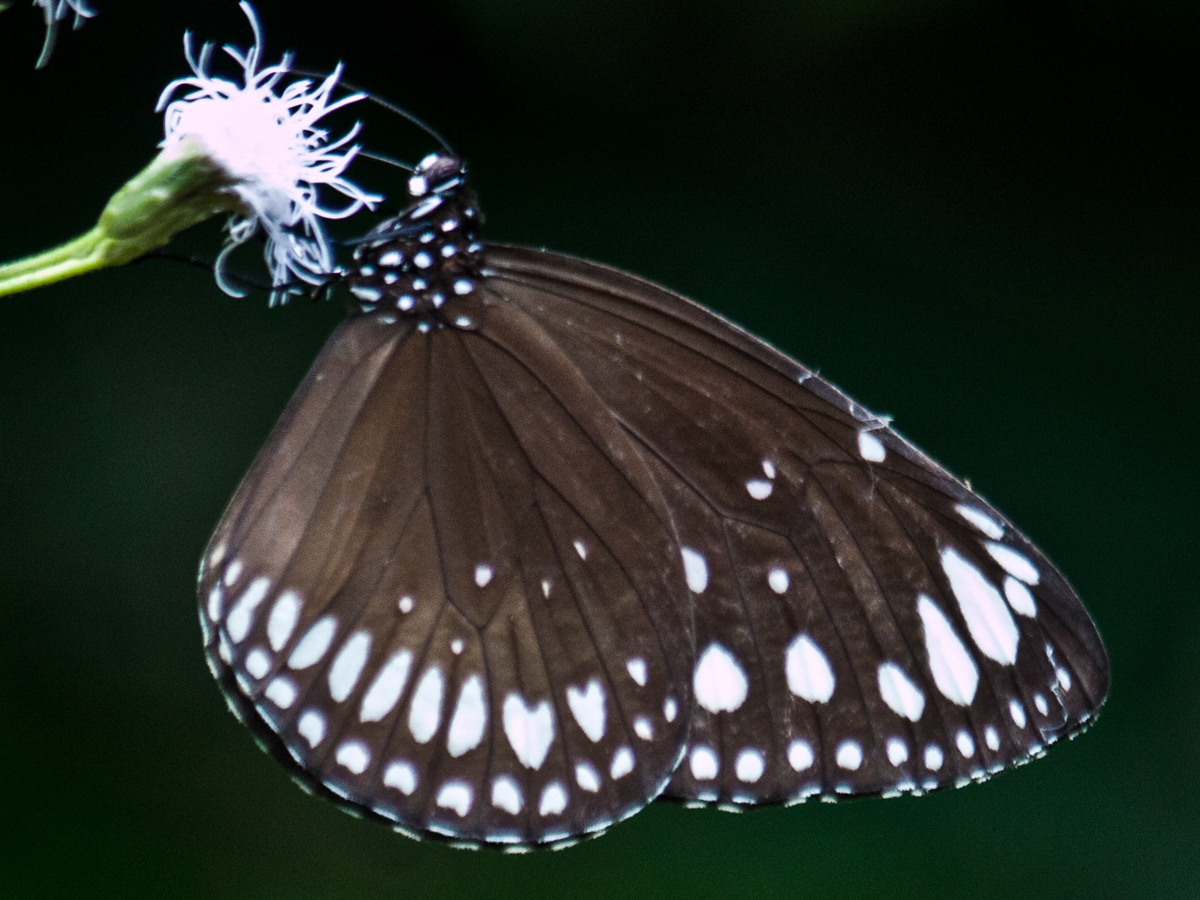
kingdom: Animalia
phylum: Arthropoda
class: Insecta
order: Lepidoptera
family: Nymphalidae
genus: Euploea
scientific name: Euploea crameri
